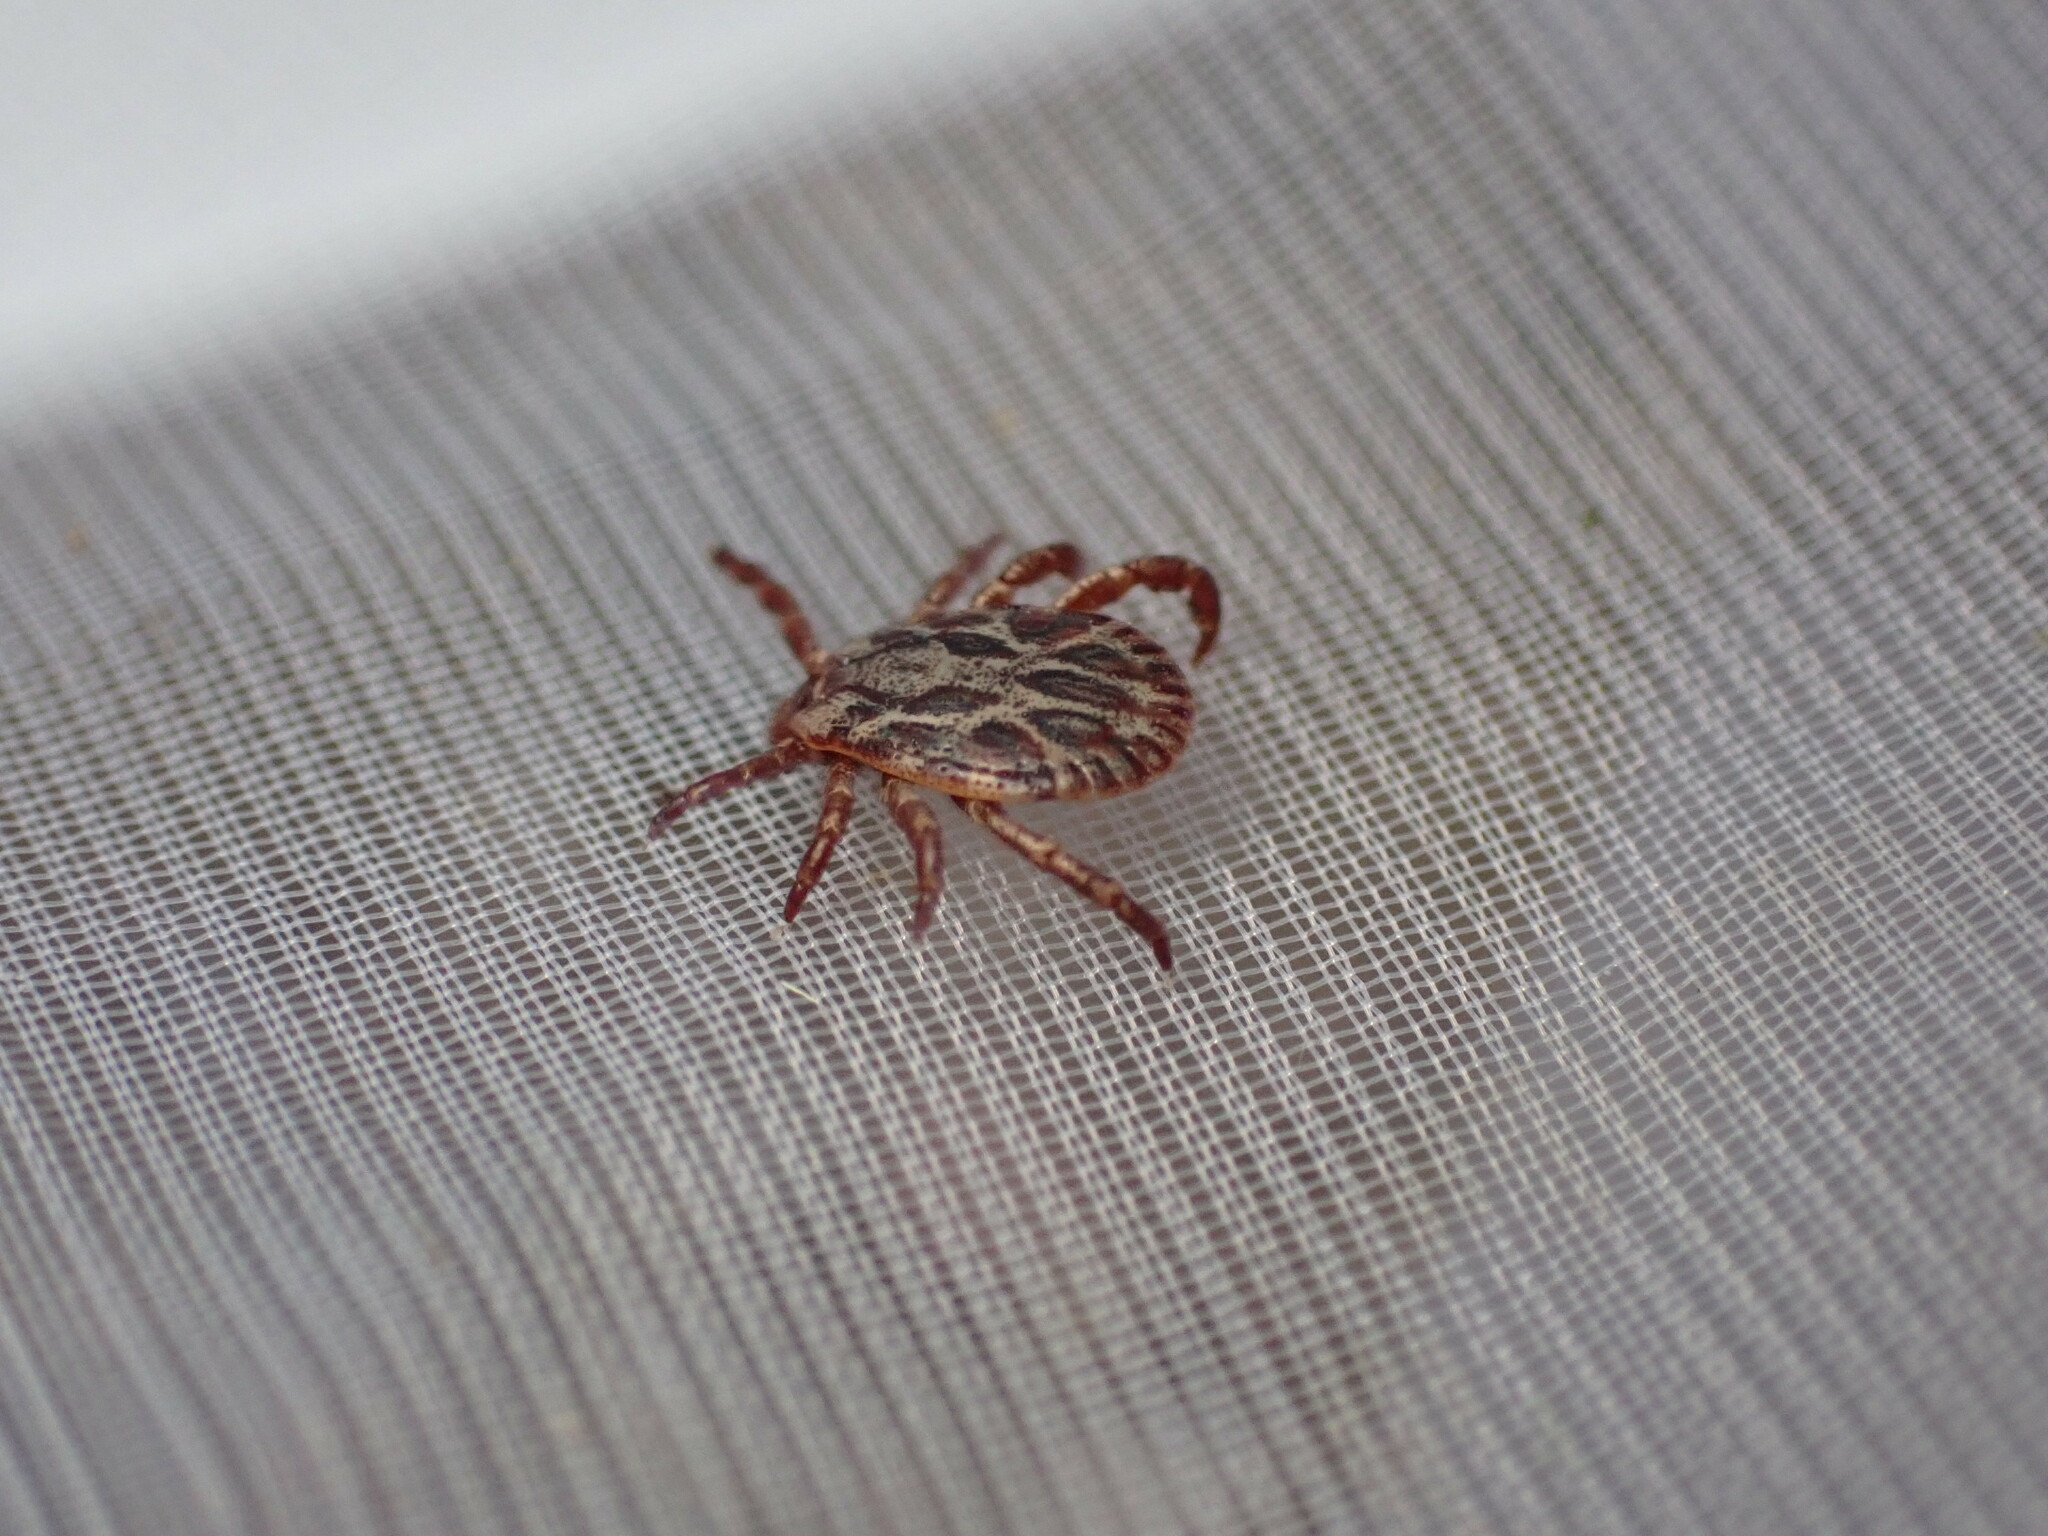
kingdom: Animalia
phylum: Arthropoda
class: Arachnida
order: Ixodida
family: Ixodidae
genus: Dermacentor
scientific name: Dermacentor marginatus
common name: Ornate sheep tick
